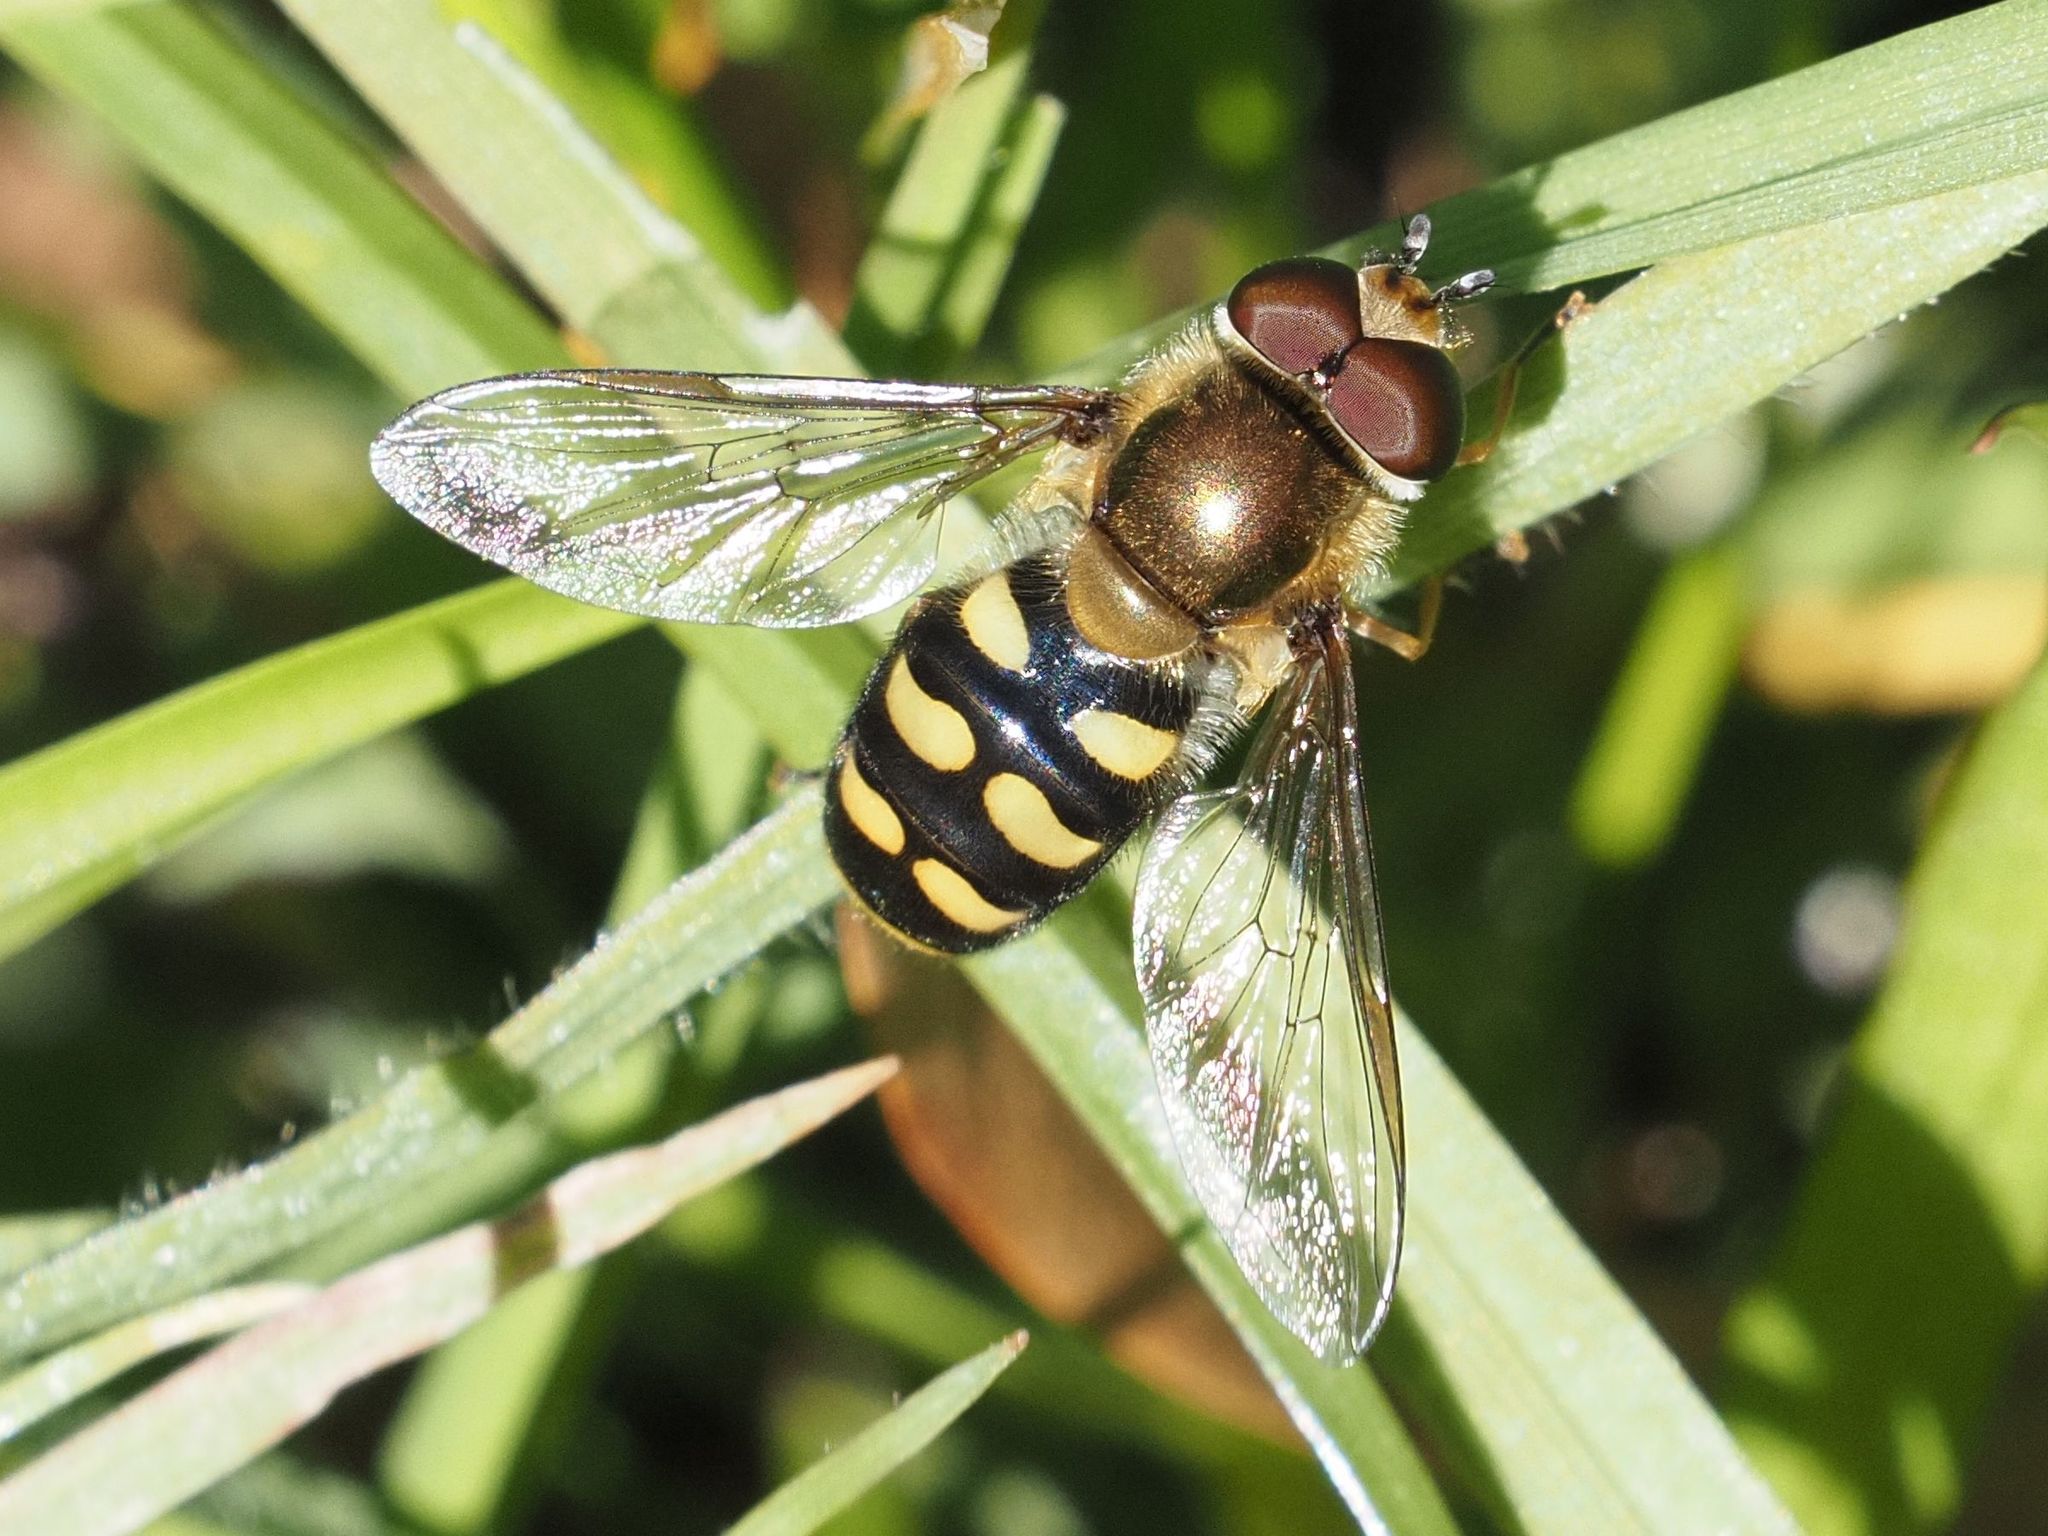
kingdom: Animalia
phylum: Arthropoda
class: Insecta
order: Diptera
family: Syrphidae
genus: Eupeodes
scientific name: Eupeodes luniger
